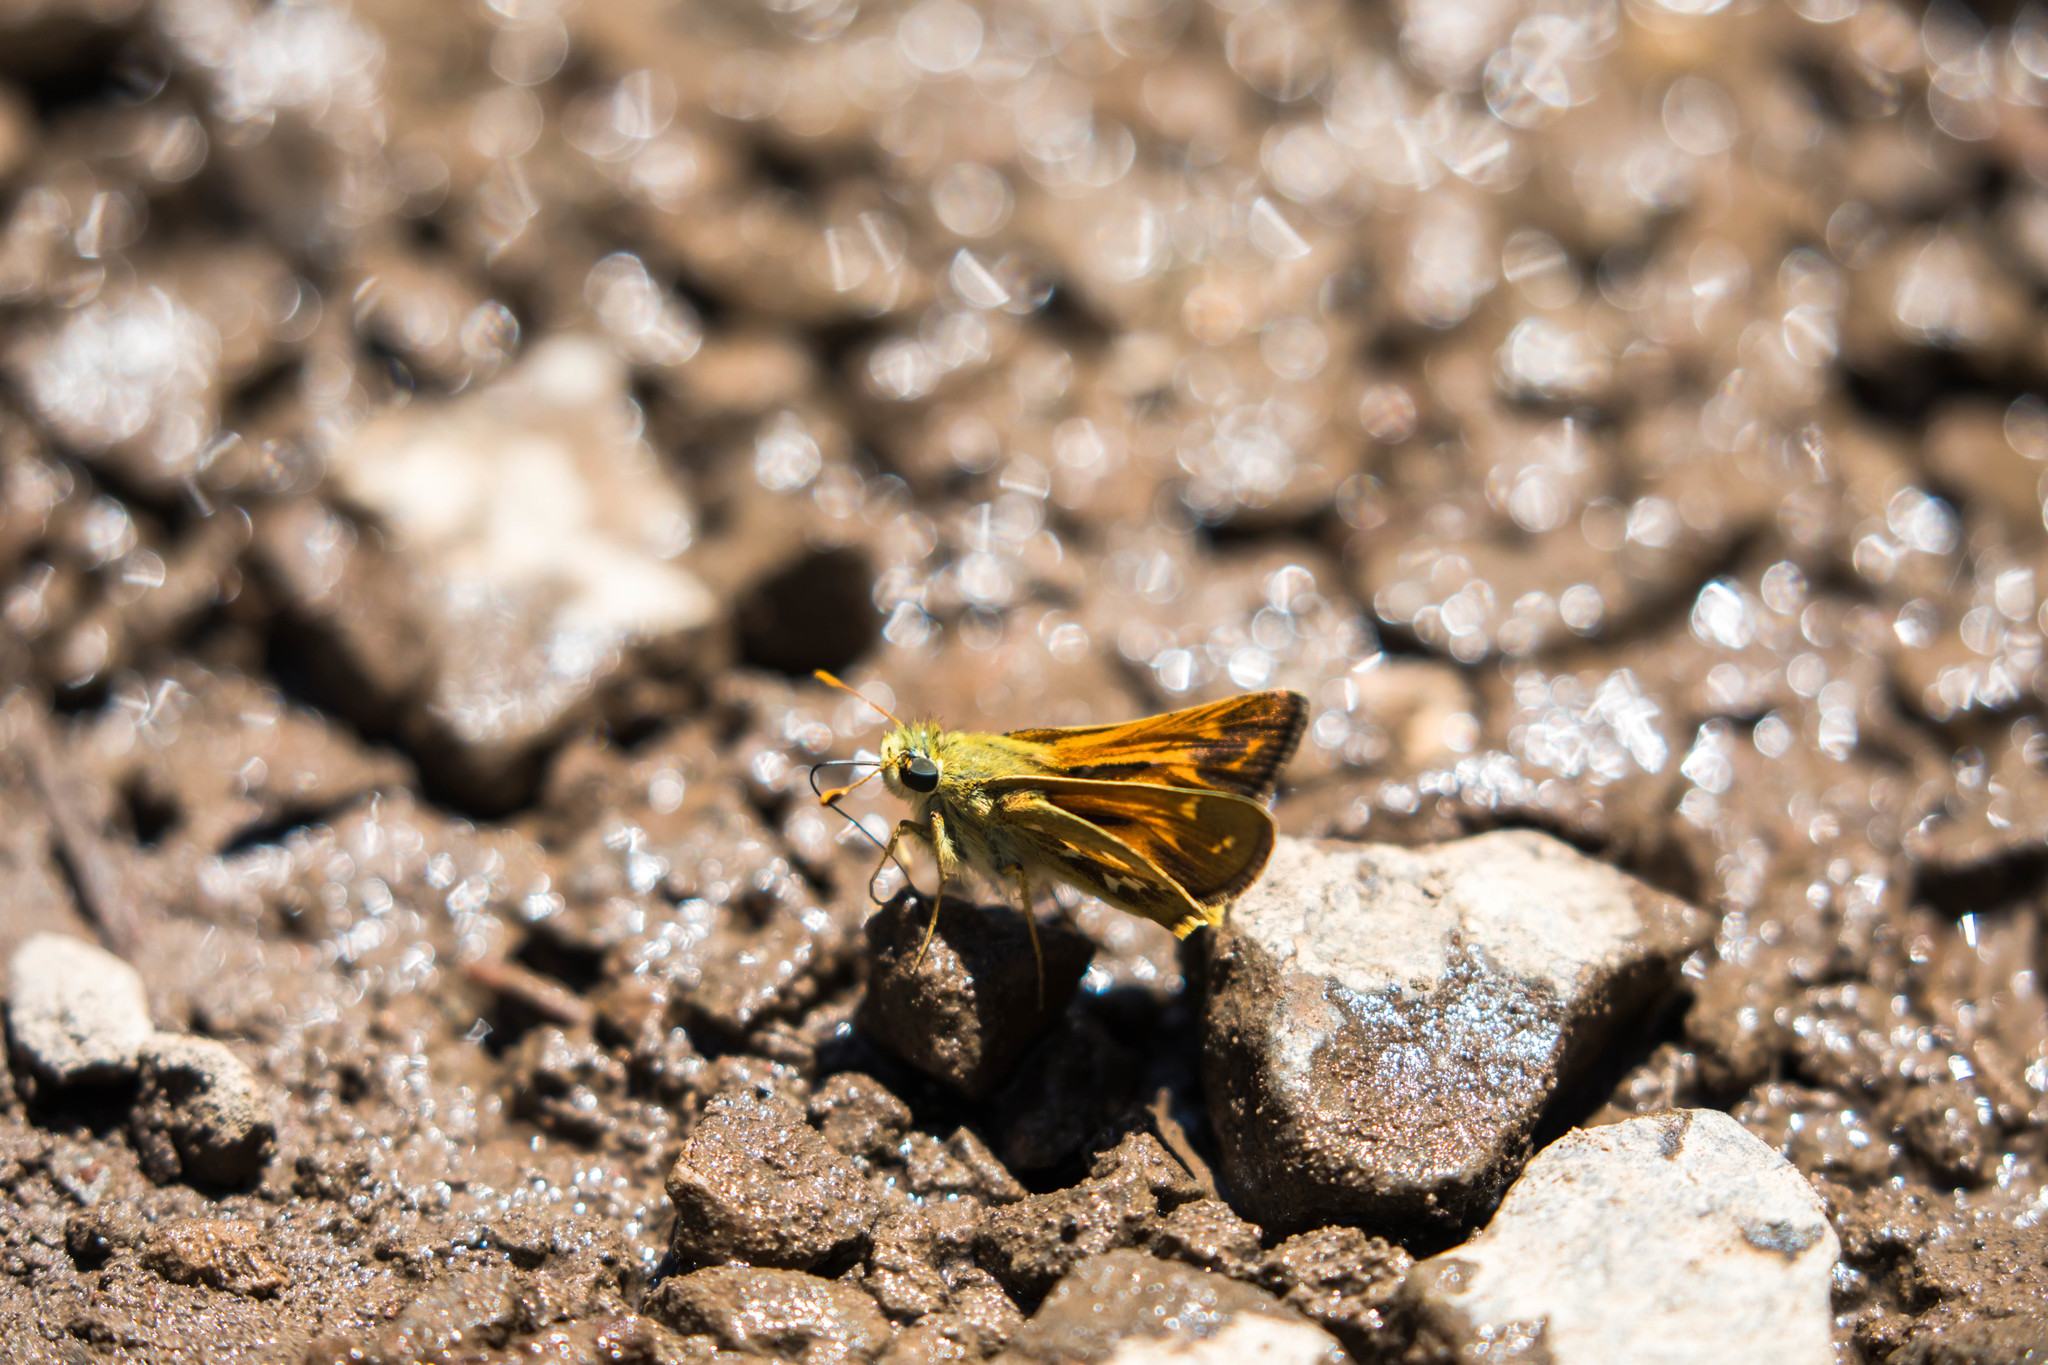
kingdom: Animalia
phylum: Arthropoda
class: Insecta
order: Lepidoptera
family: Hesperiidae
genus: Hesperia
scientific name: Hesperia comma
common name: Common branded skipper
